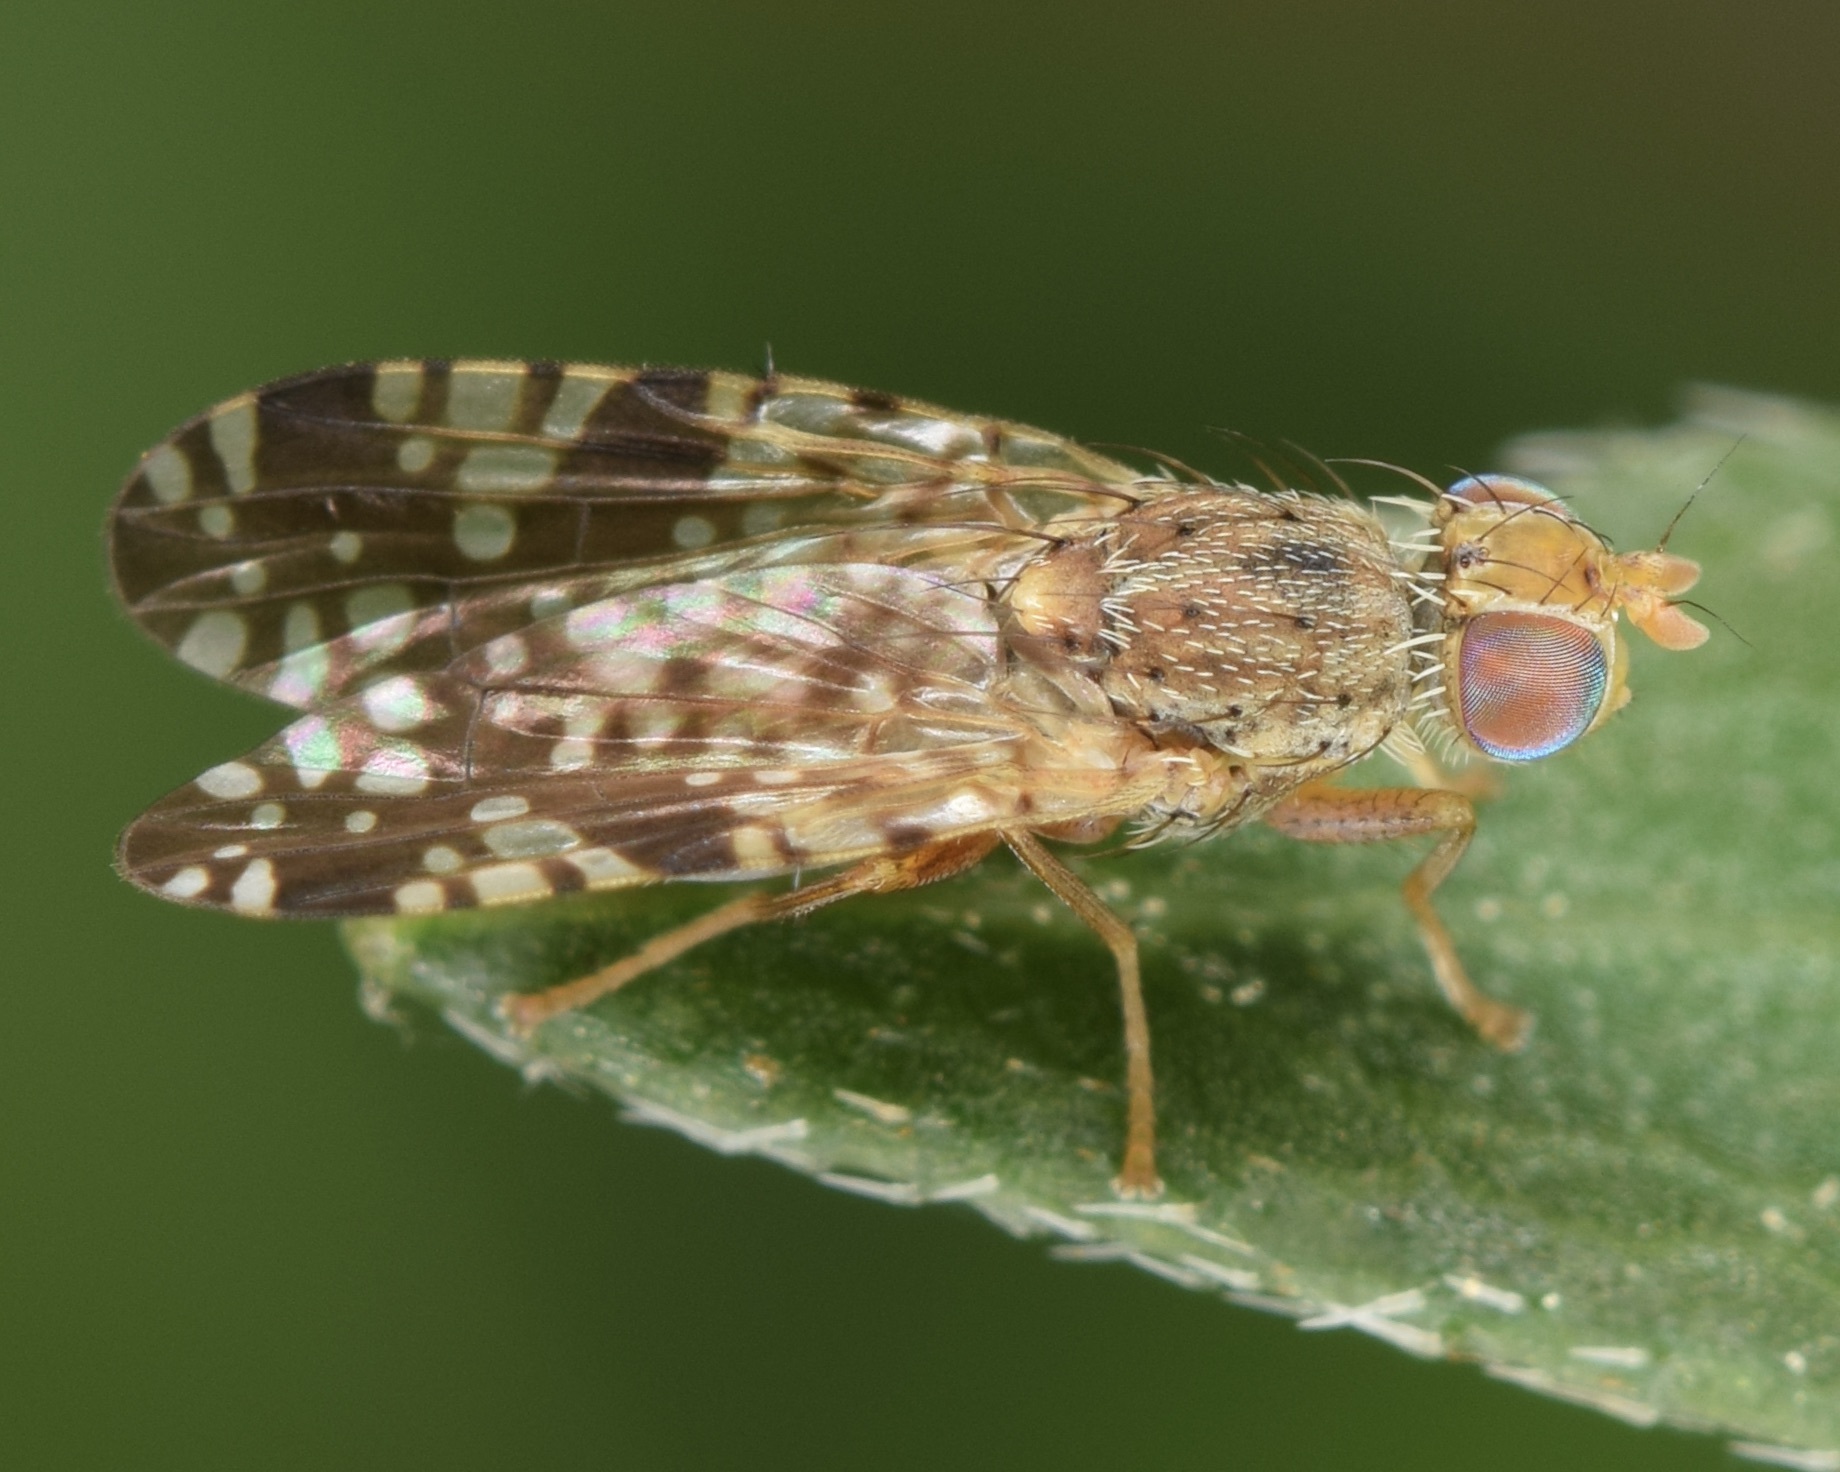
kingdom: Animalia
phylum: Arthropoda
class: Insecta
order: Diptera
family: Tephritidae
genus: Neotephritis
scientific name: Neotephritis finalis
